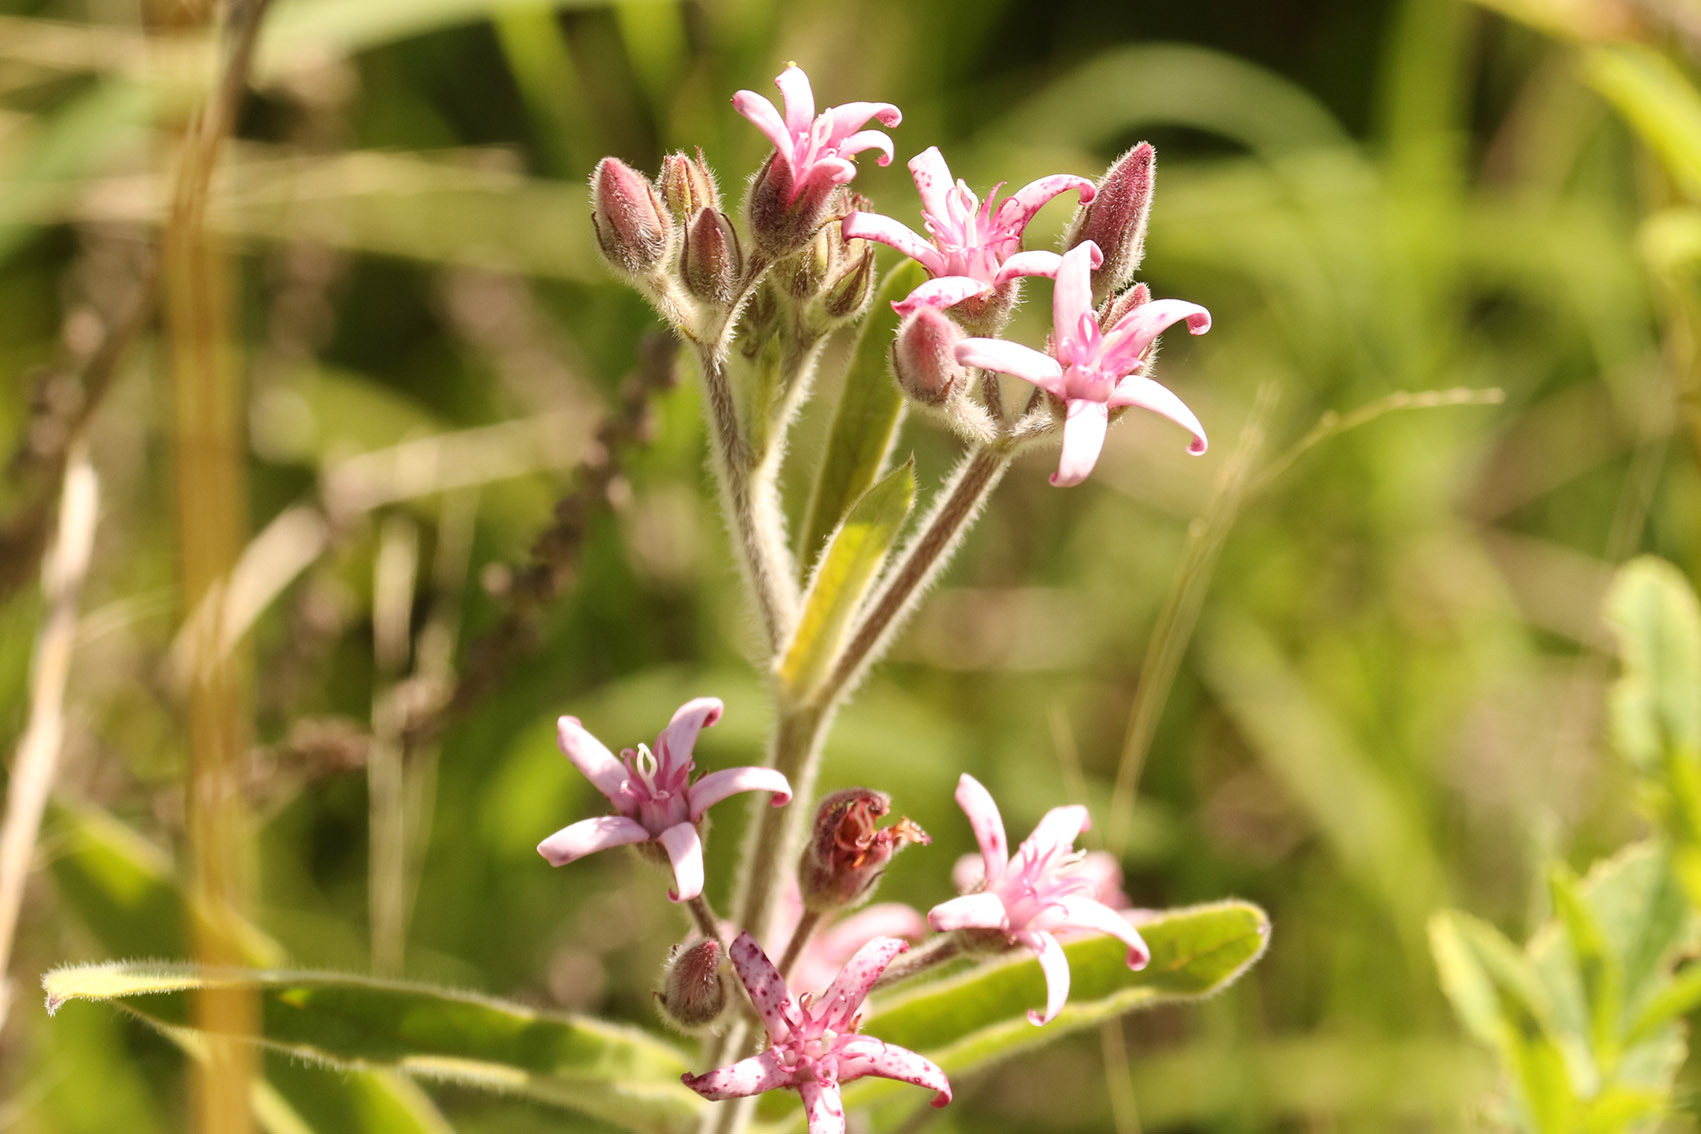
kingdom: Plantae
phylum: Tracheophyta
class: Magnoliopsida
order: Gentianales
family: Apocynaceae
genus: Oxypetalum
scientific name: Oxypetalum solanoides
